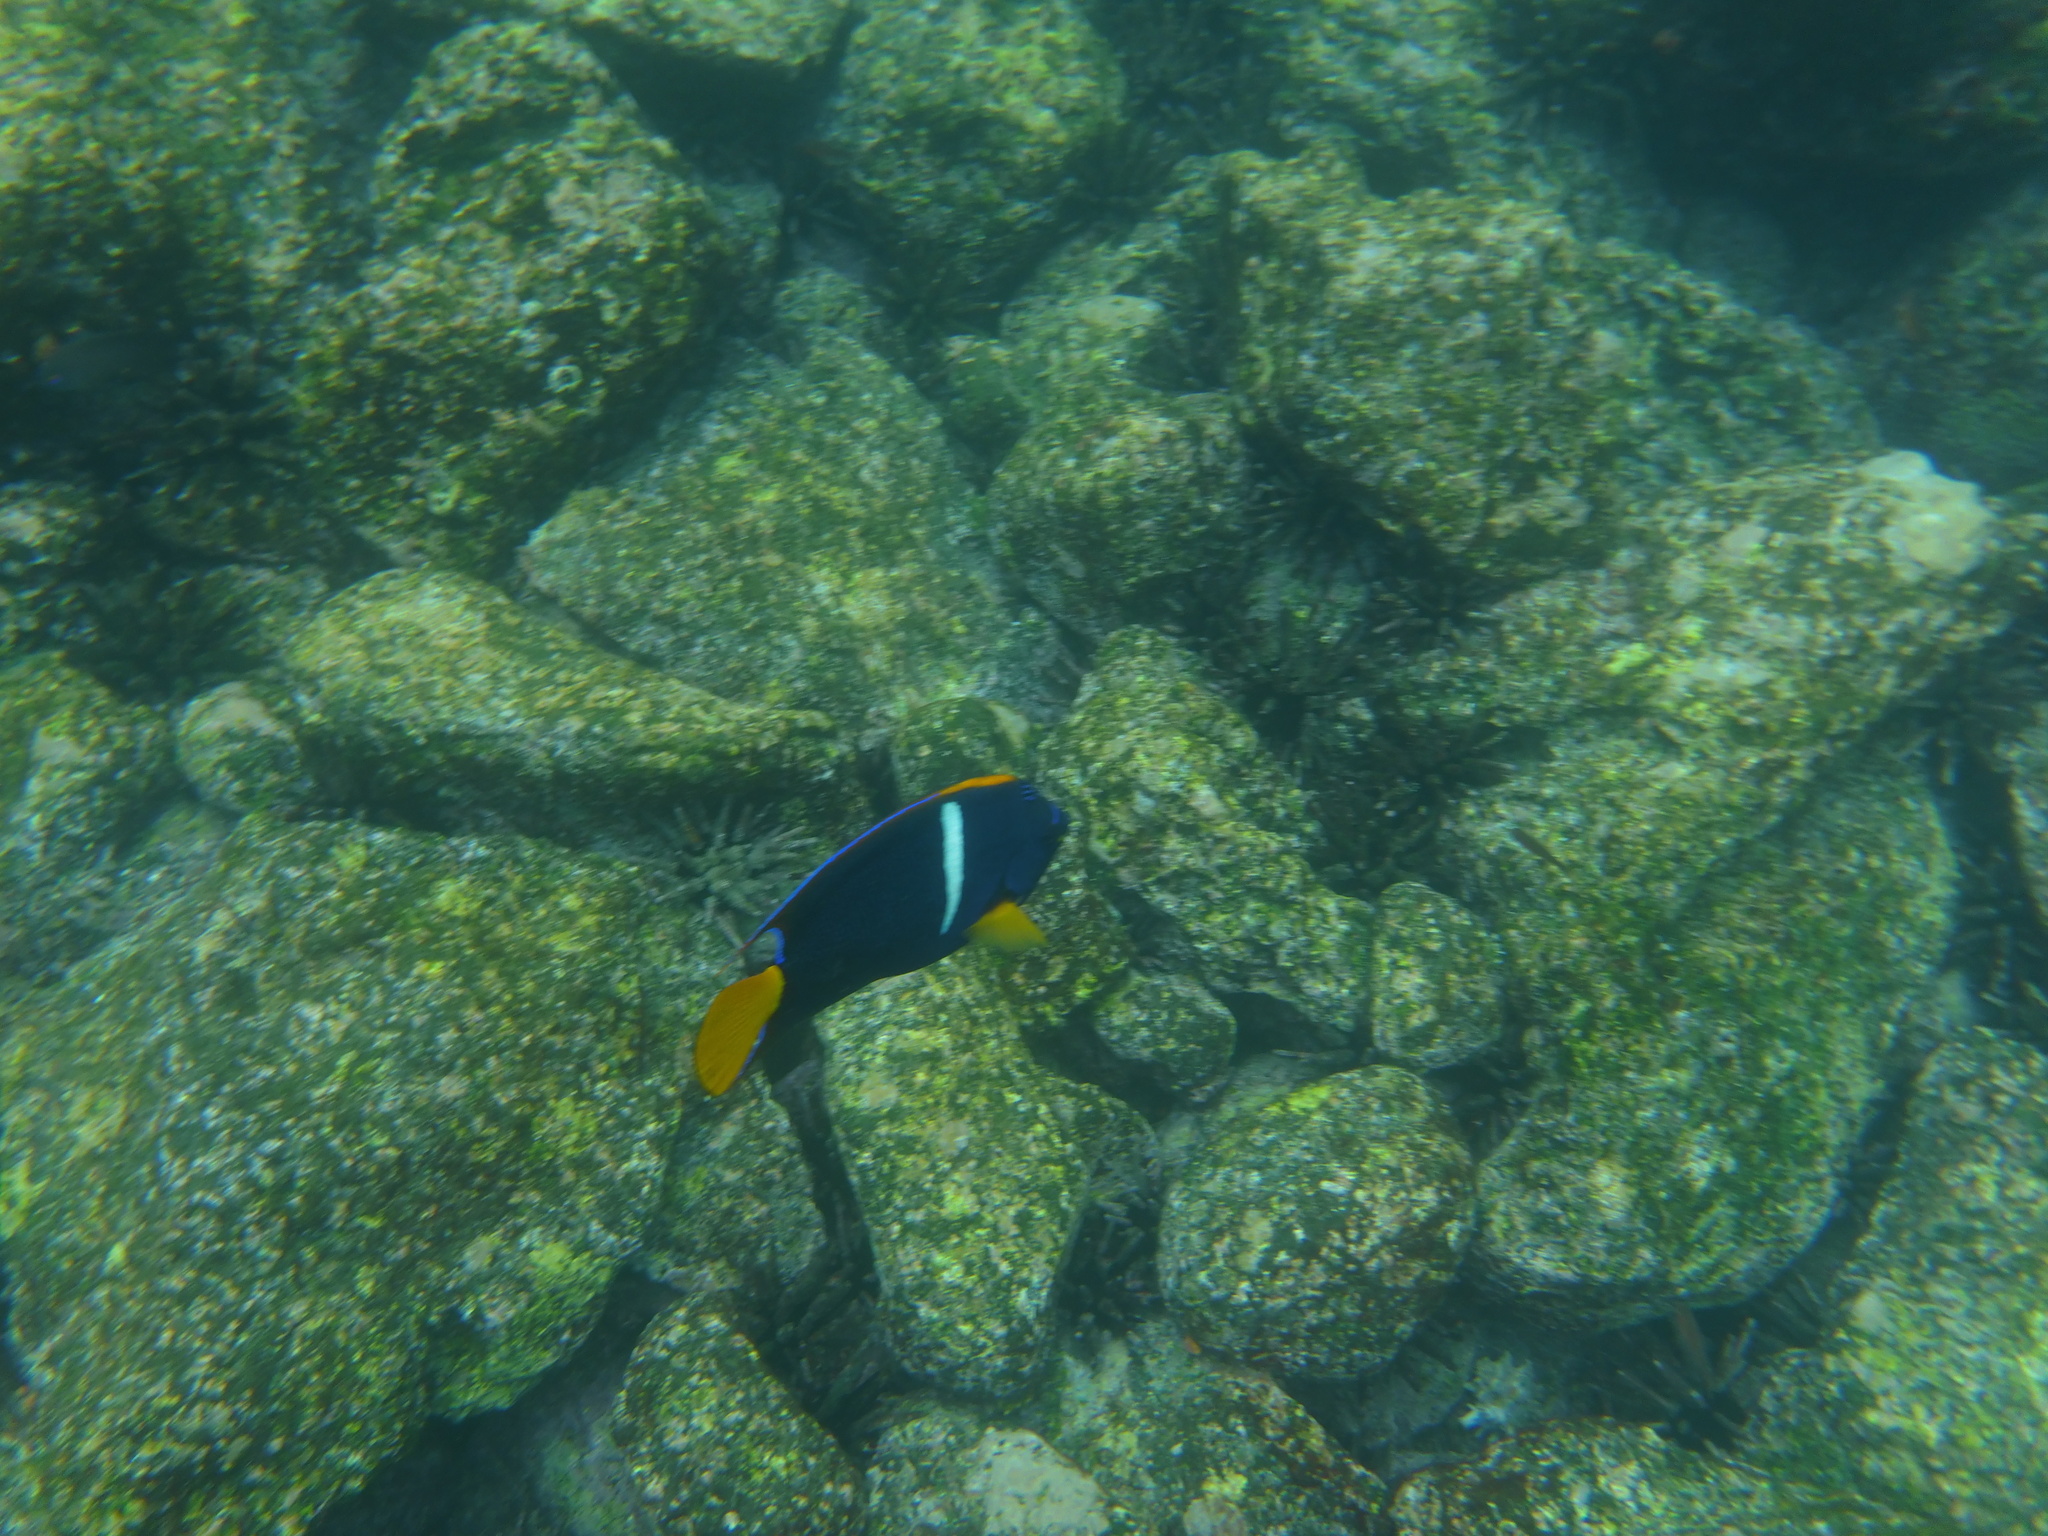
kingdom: Animalia
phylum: Chordata
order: Perciformes
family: Pomacanthidae
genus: Holacanthus
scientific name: Holacanthus passer
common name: King angelfish
